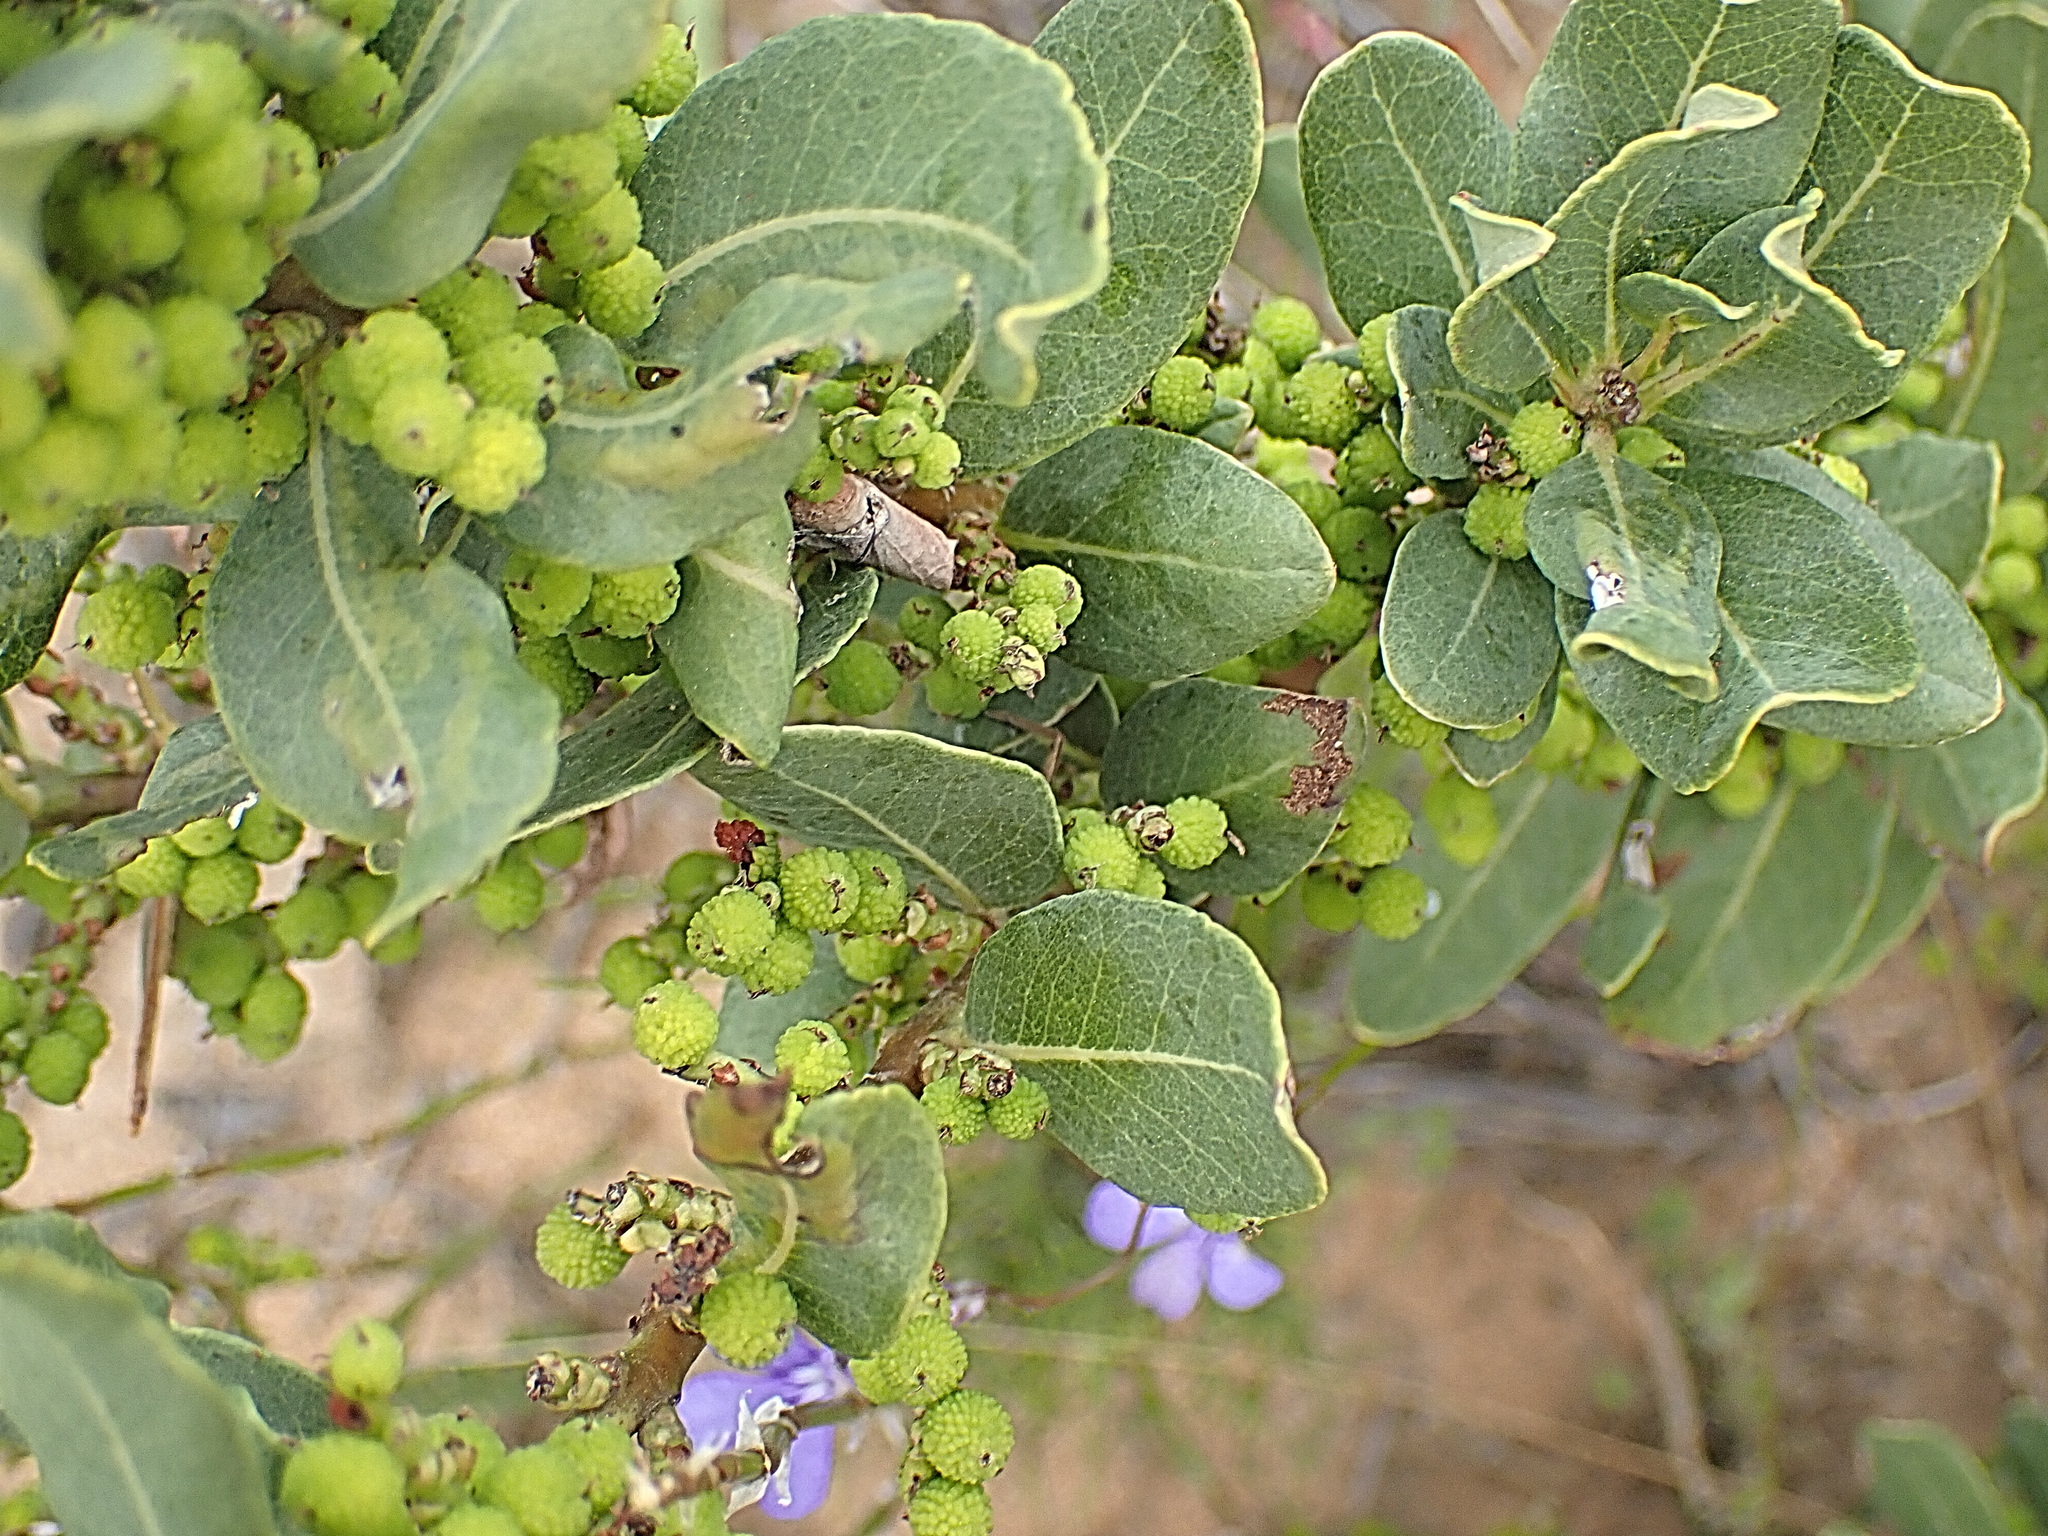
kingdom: Plantae
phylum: Tracheophyta
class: Magnoliopsida
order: Fagales
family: Myricaceae
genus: Morella
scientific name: Morella humilis
